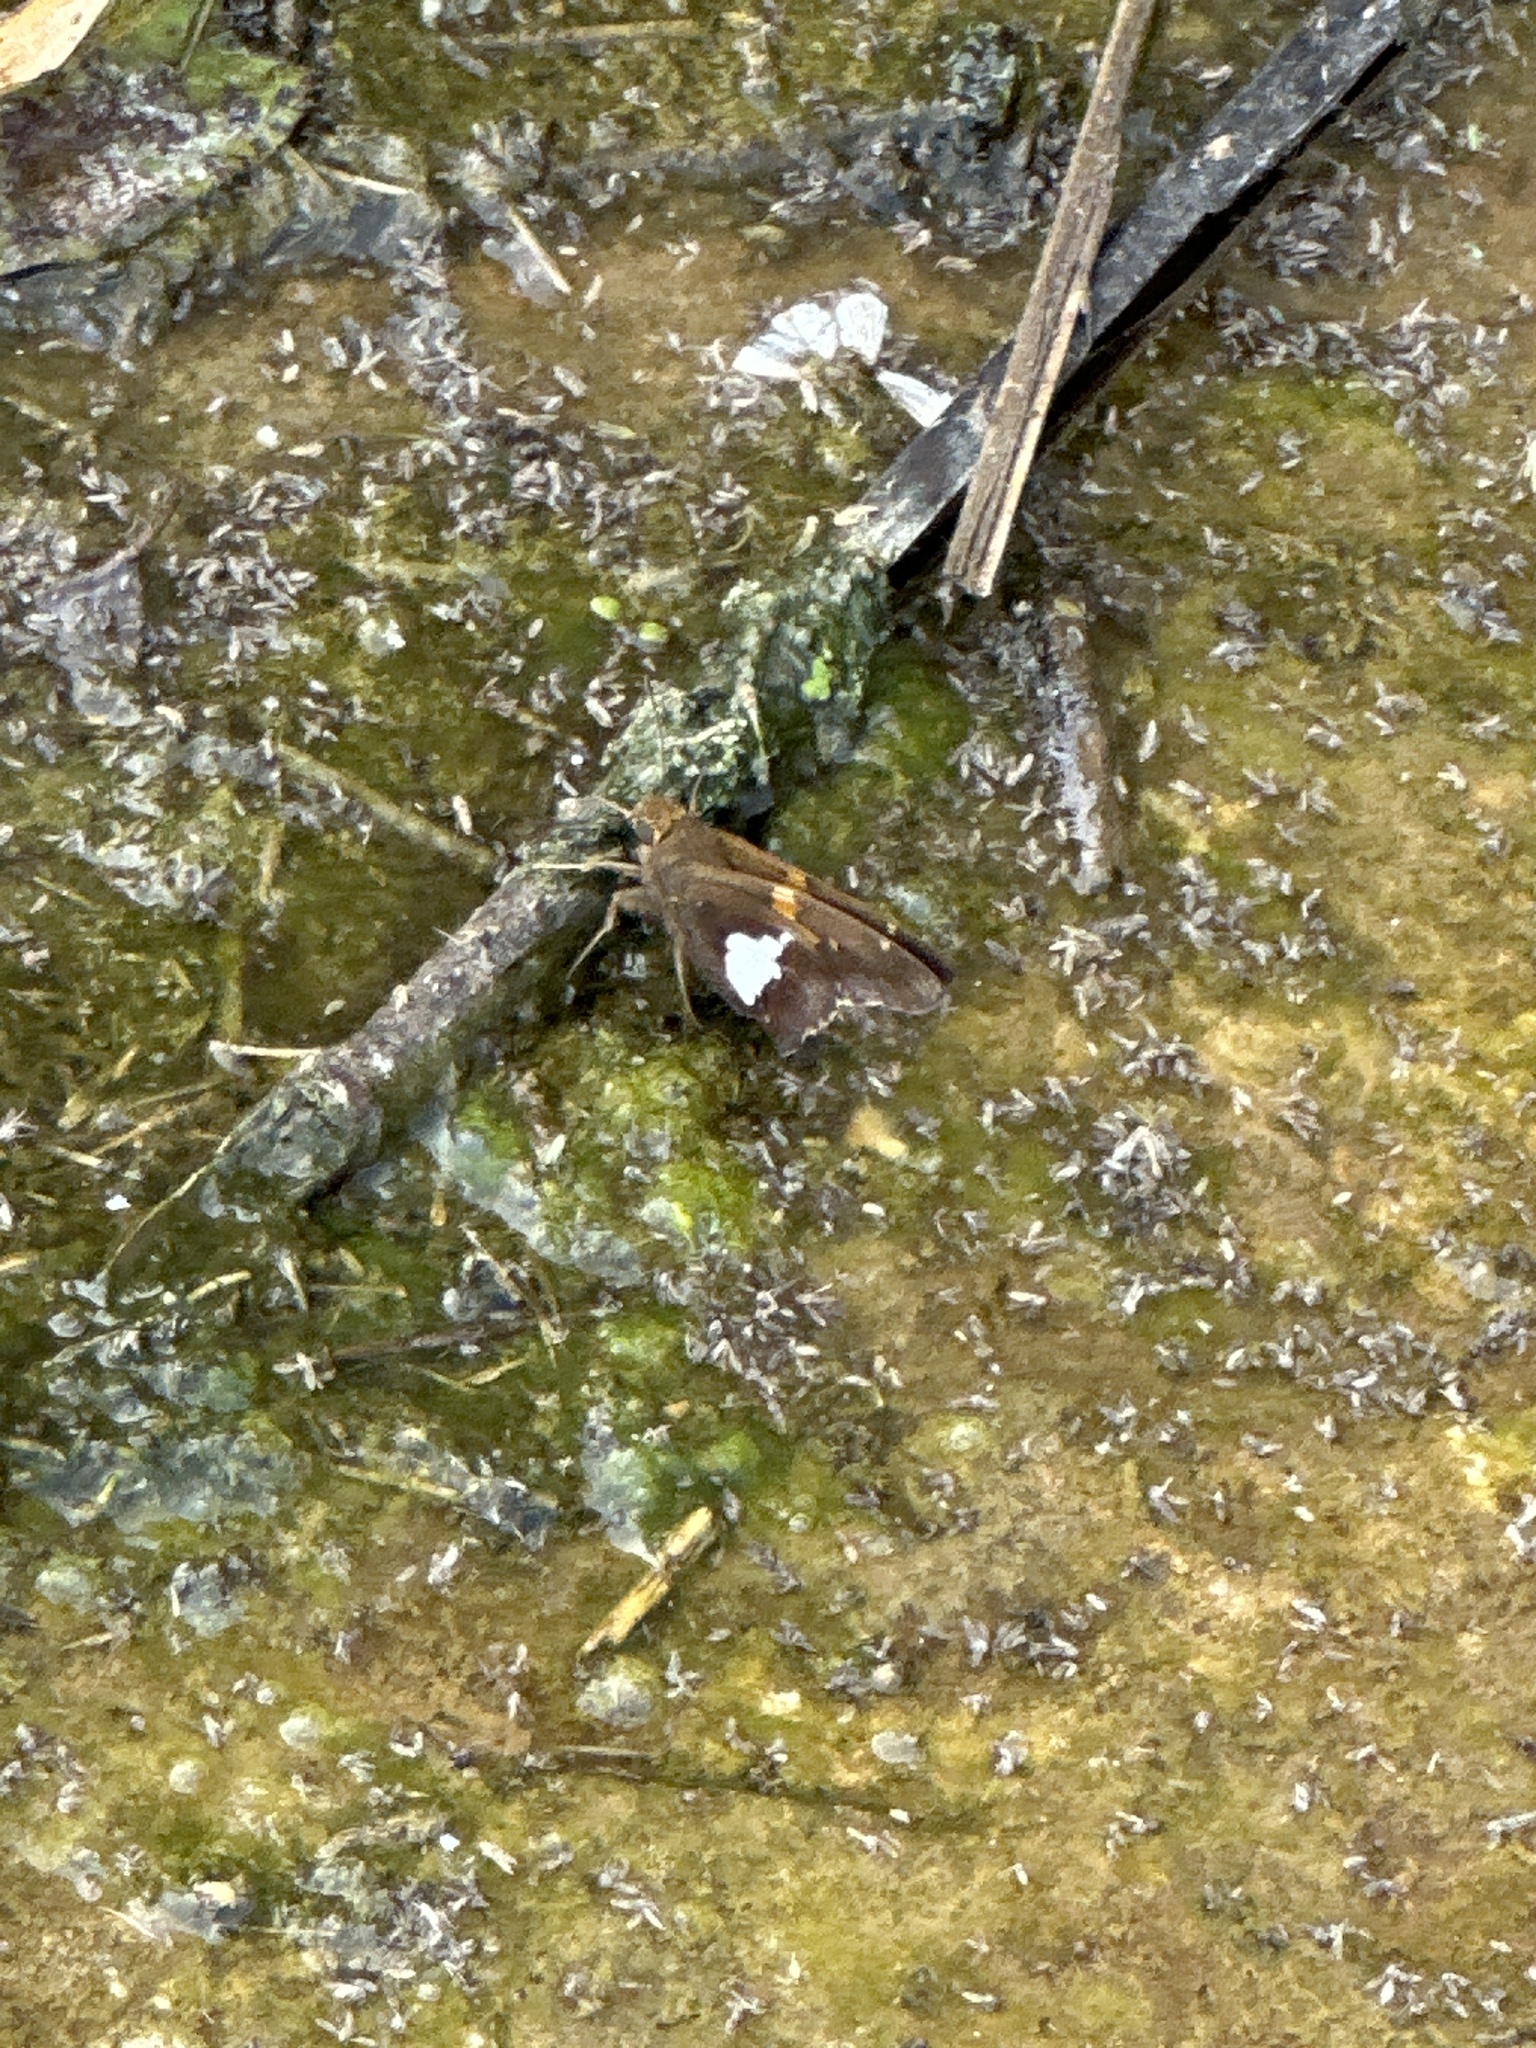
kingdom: Animalia
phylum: Arthropoda
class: Insecta
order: Lepidoptera
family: Hesperiidae
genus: Epargyreus
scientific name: Epargyreus clarus
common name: Silver-spotted skipper
